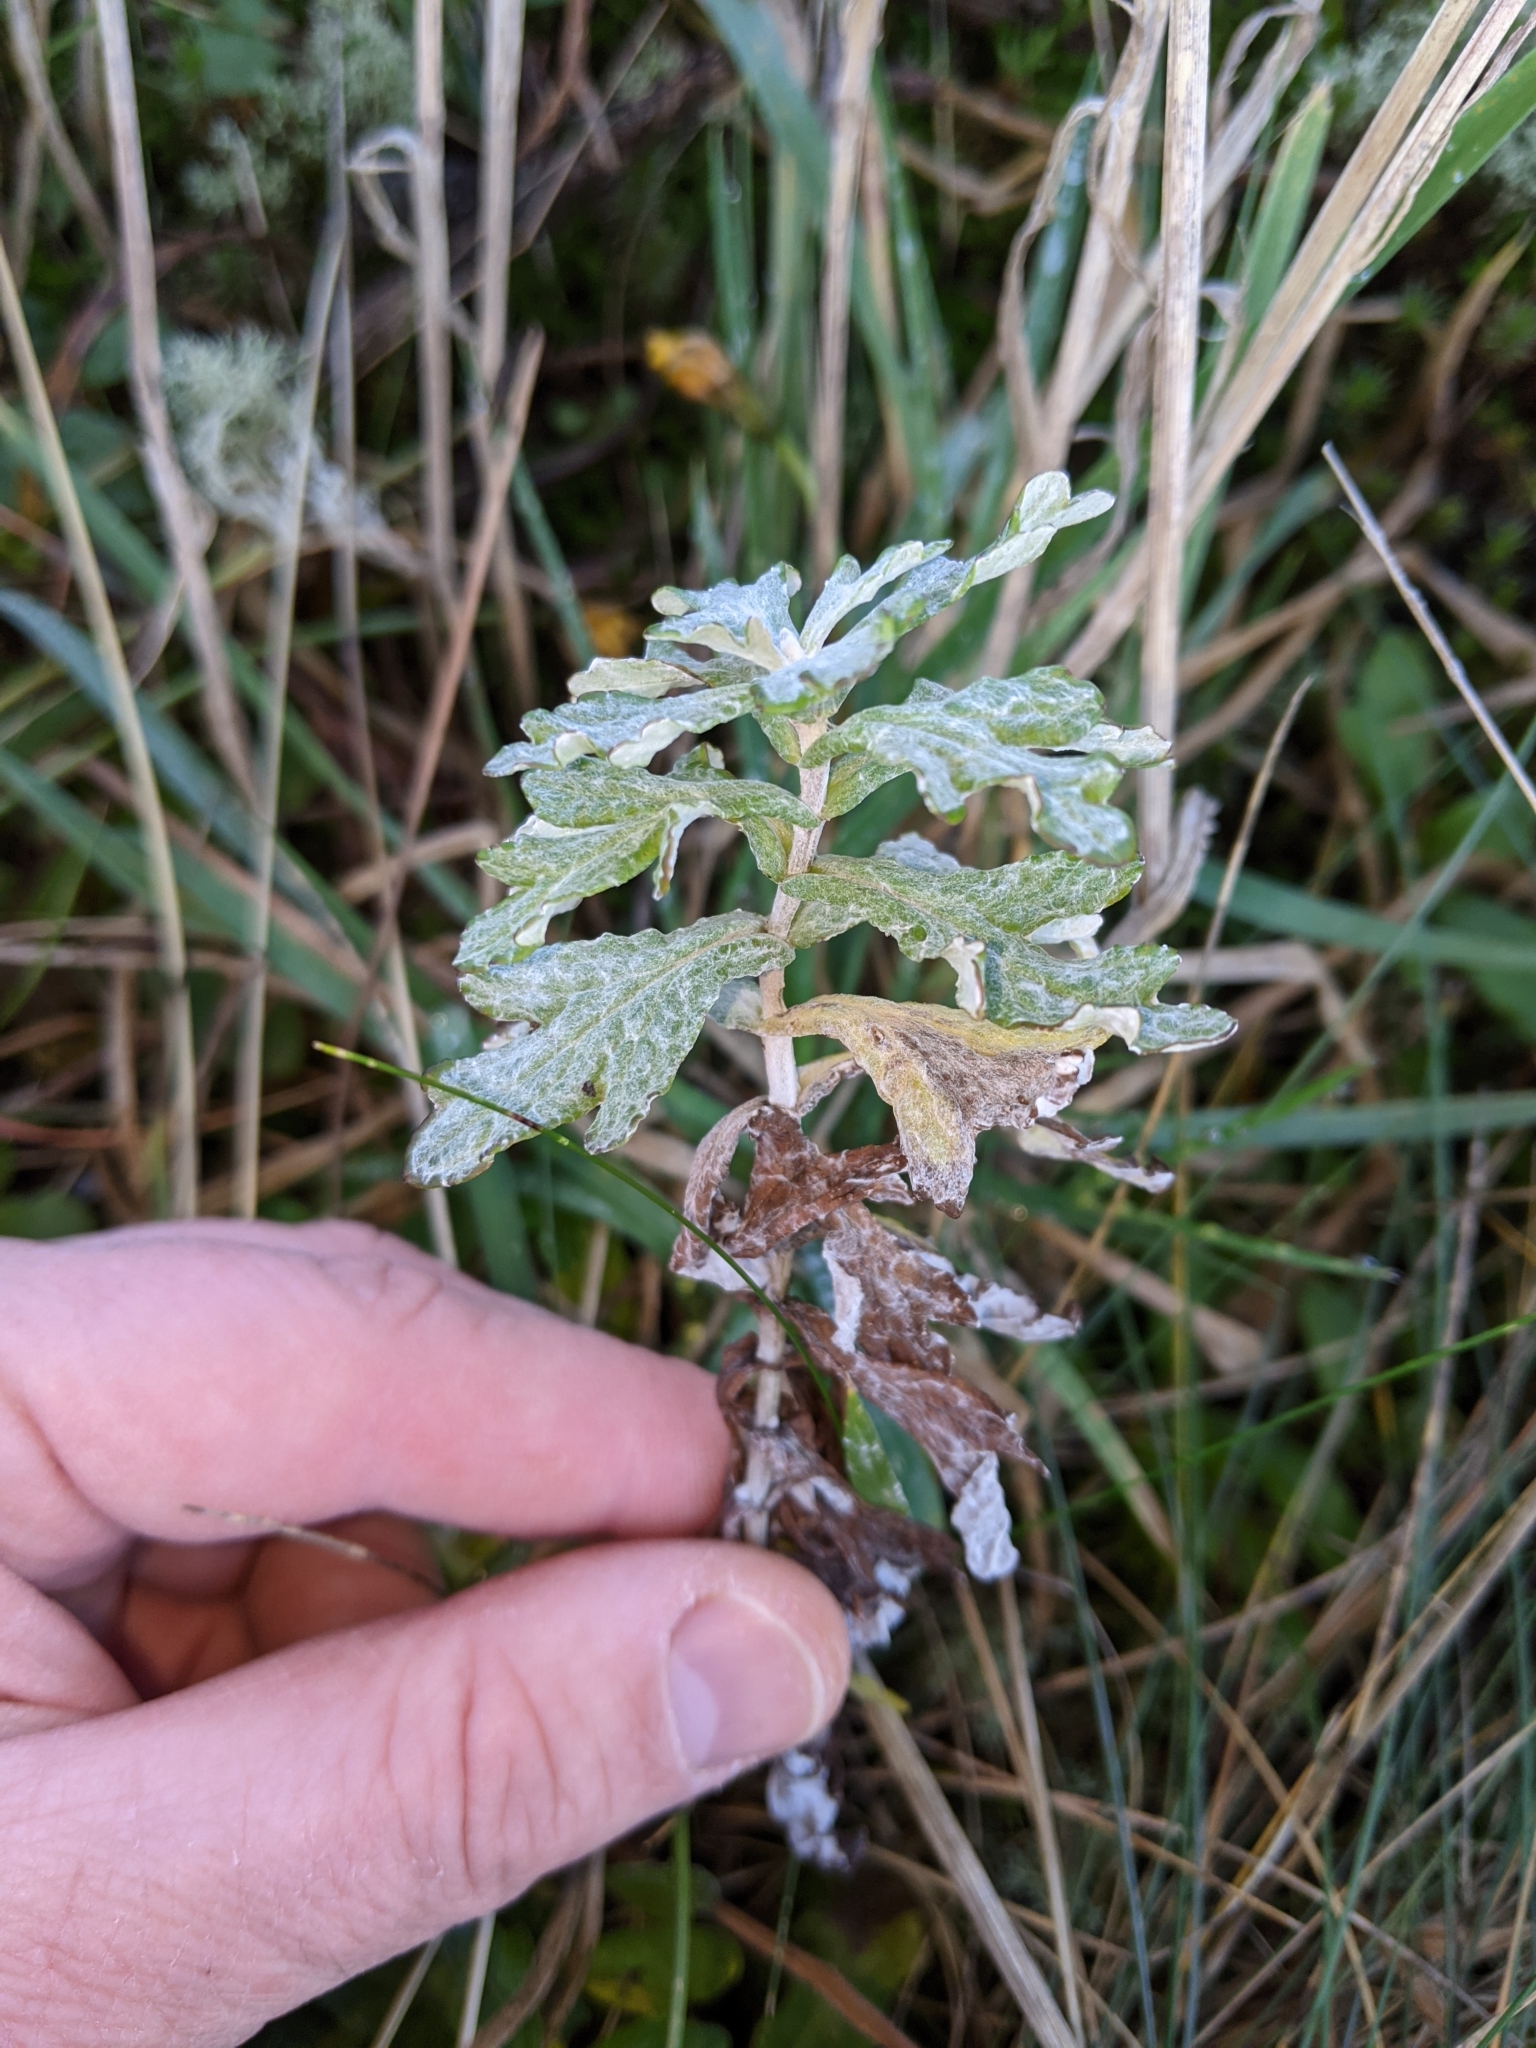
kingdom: Plantae
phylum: Tracheophyta
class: Magnoliopsida
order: Asterales
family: Asteraceae
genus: Eriophyllum
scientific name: Eriophyllum lanatum
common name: Common woolly-sunflower
